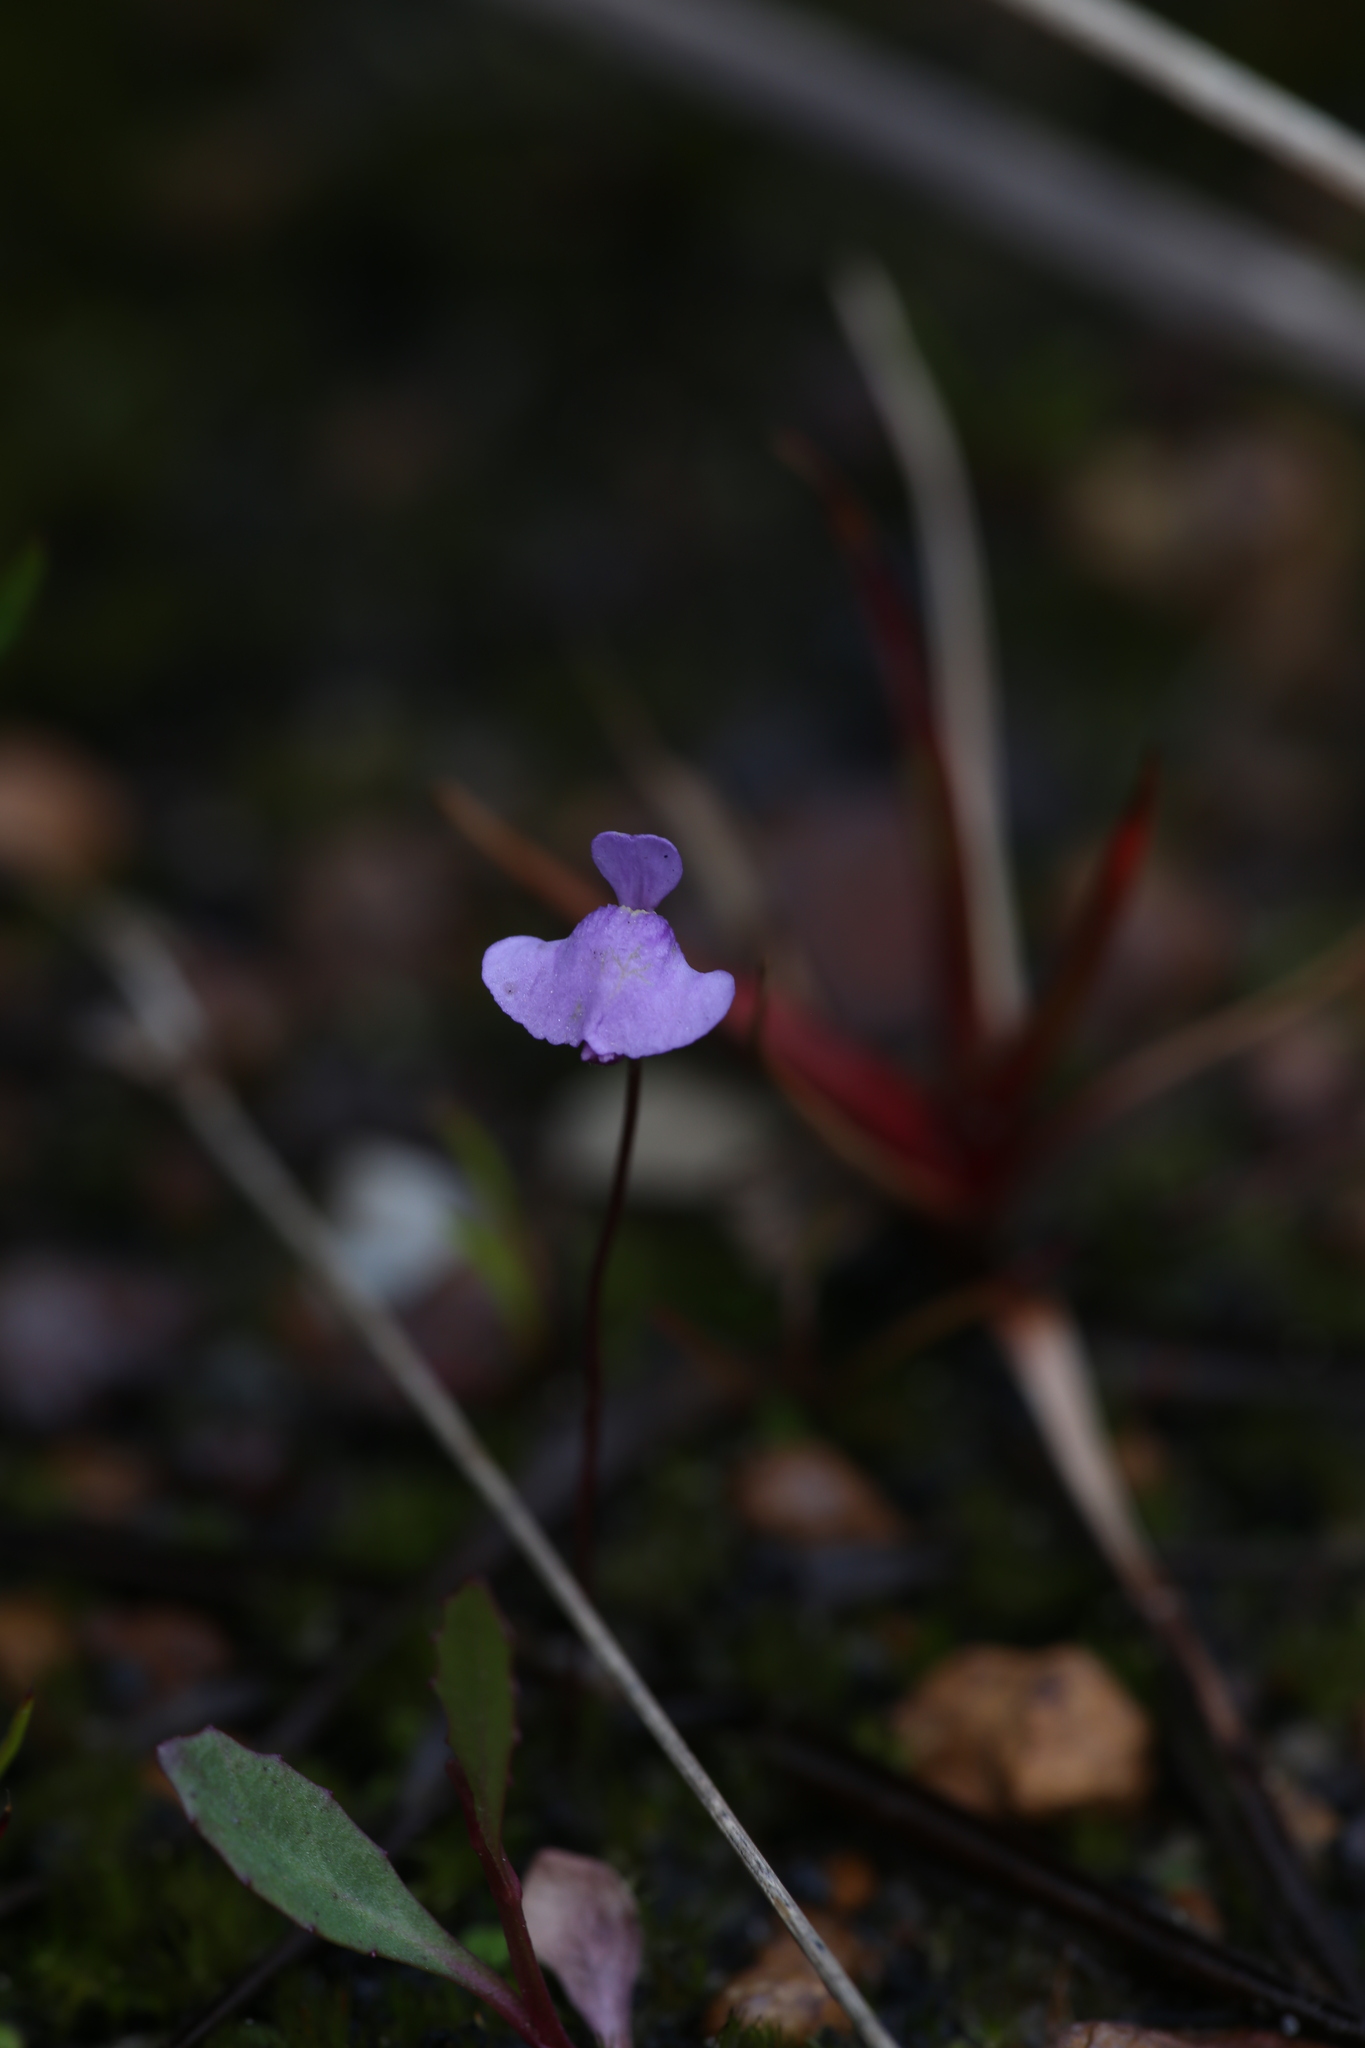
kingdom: Plantae
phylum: Tracheophyta
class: Magnoliopsida
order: Lamiales
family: Lentibulariaceae
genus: Utricularia
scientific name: Utricularia simplex
